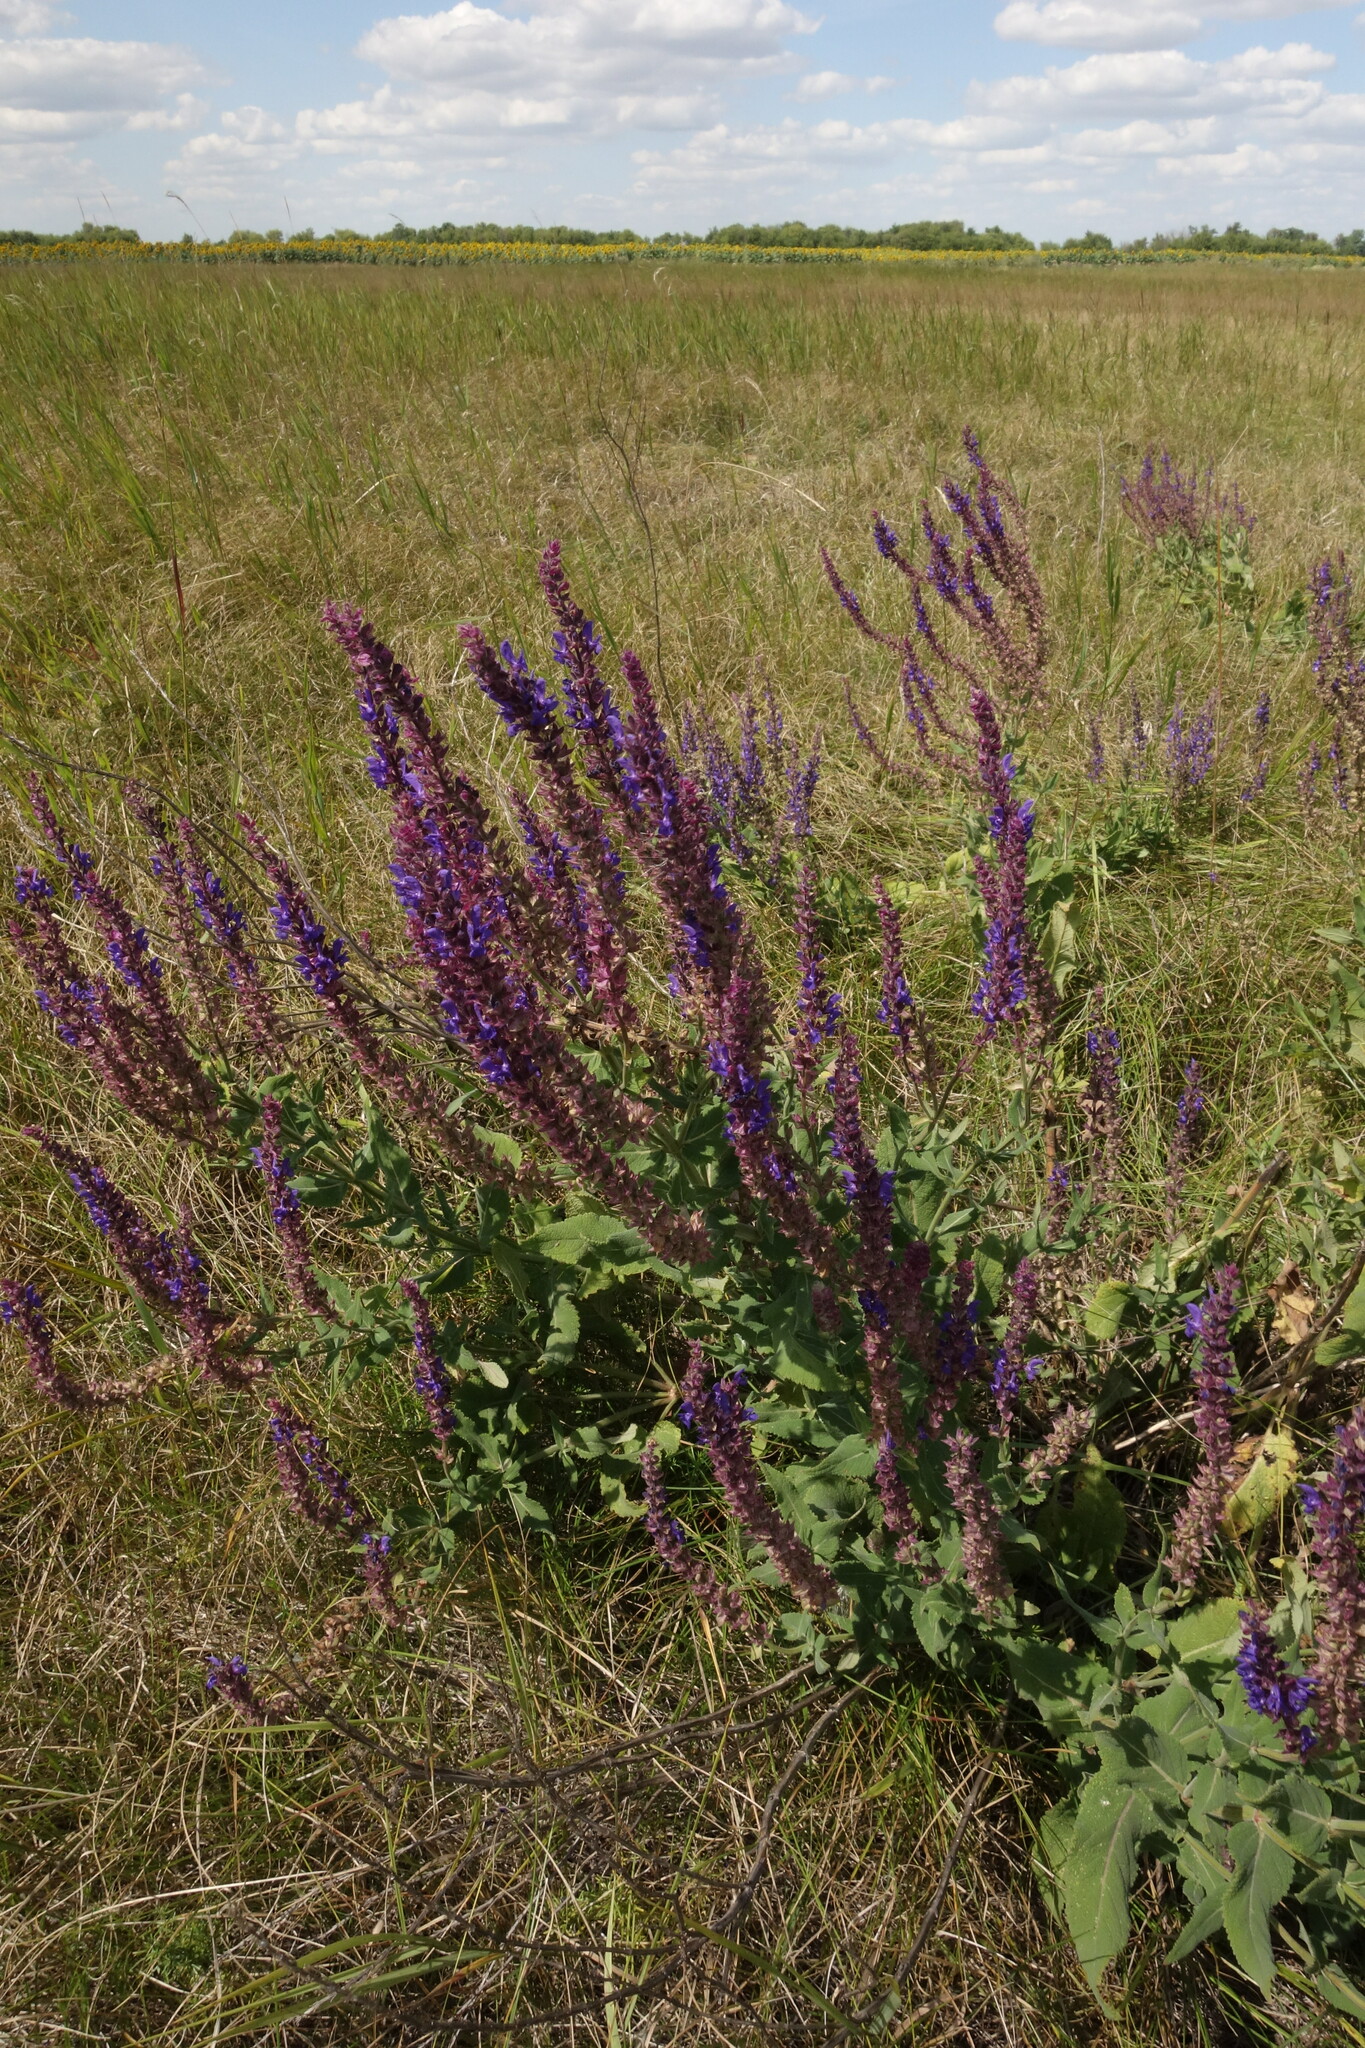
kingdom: Plantae
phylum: Tracheophyta
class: Magnoliopsida
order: Lamiales
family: Lamiaceae
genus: Salvia
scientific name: Salvia nemorosa
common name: Balkan clary
